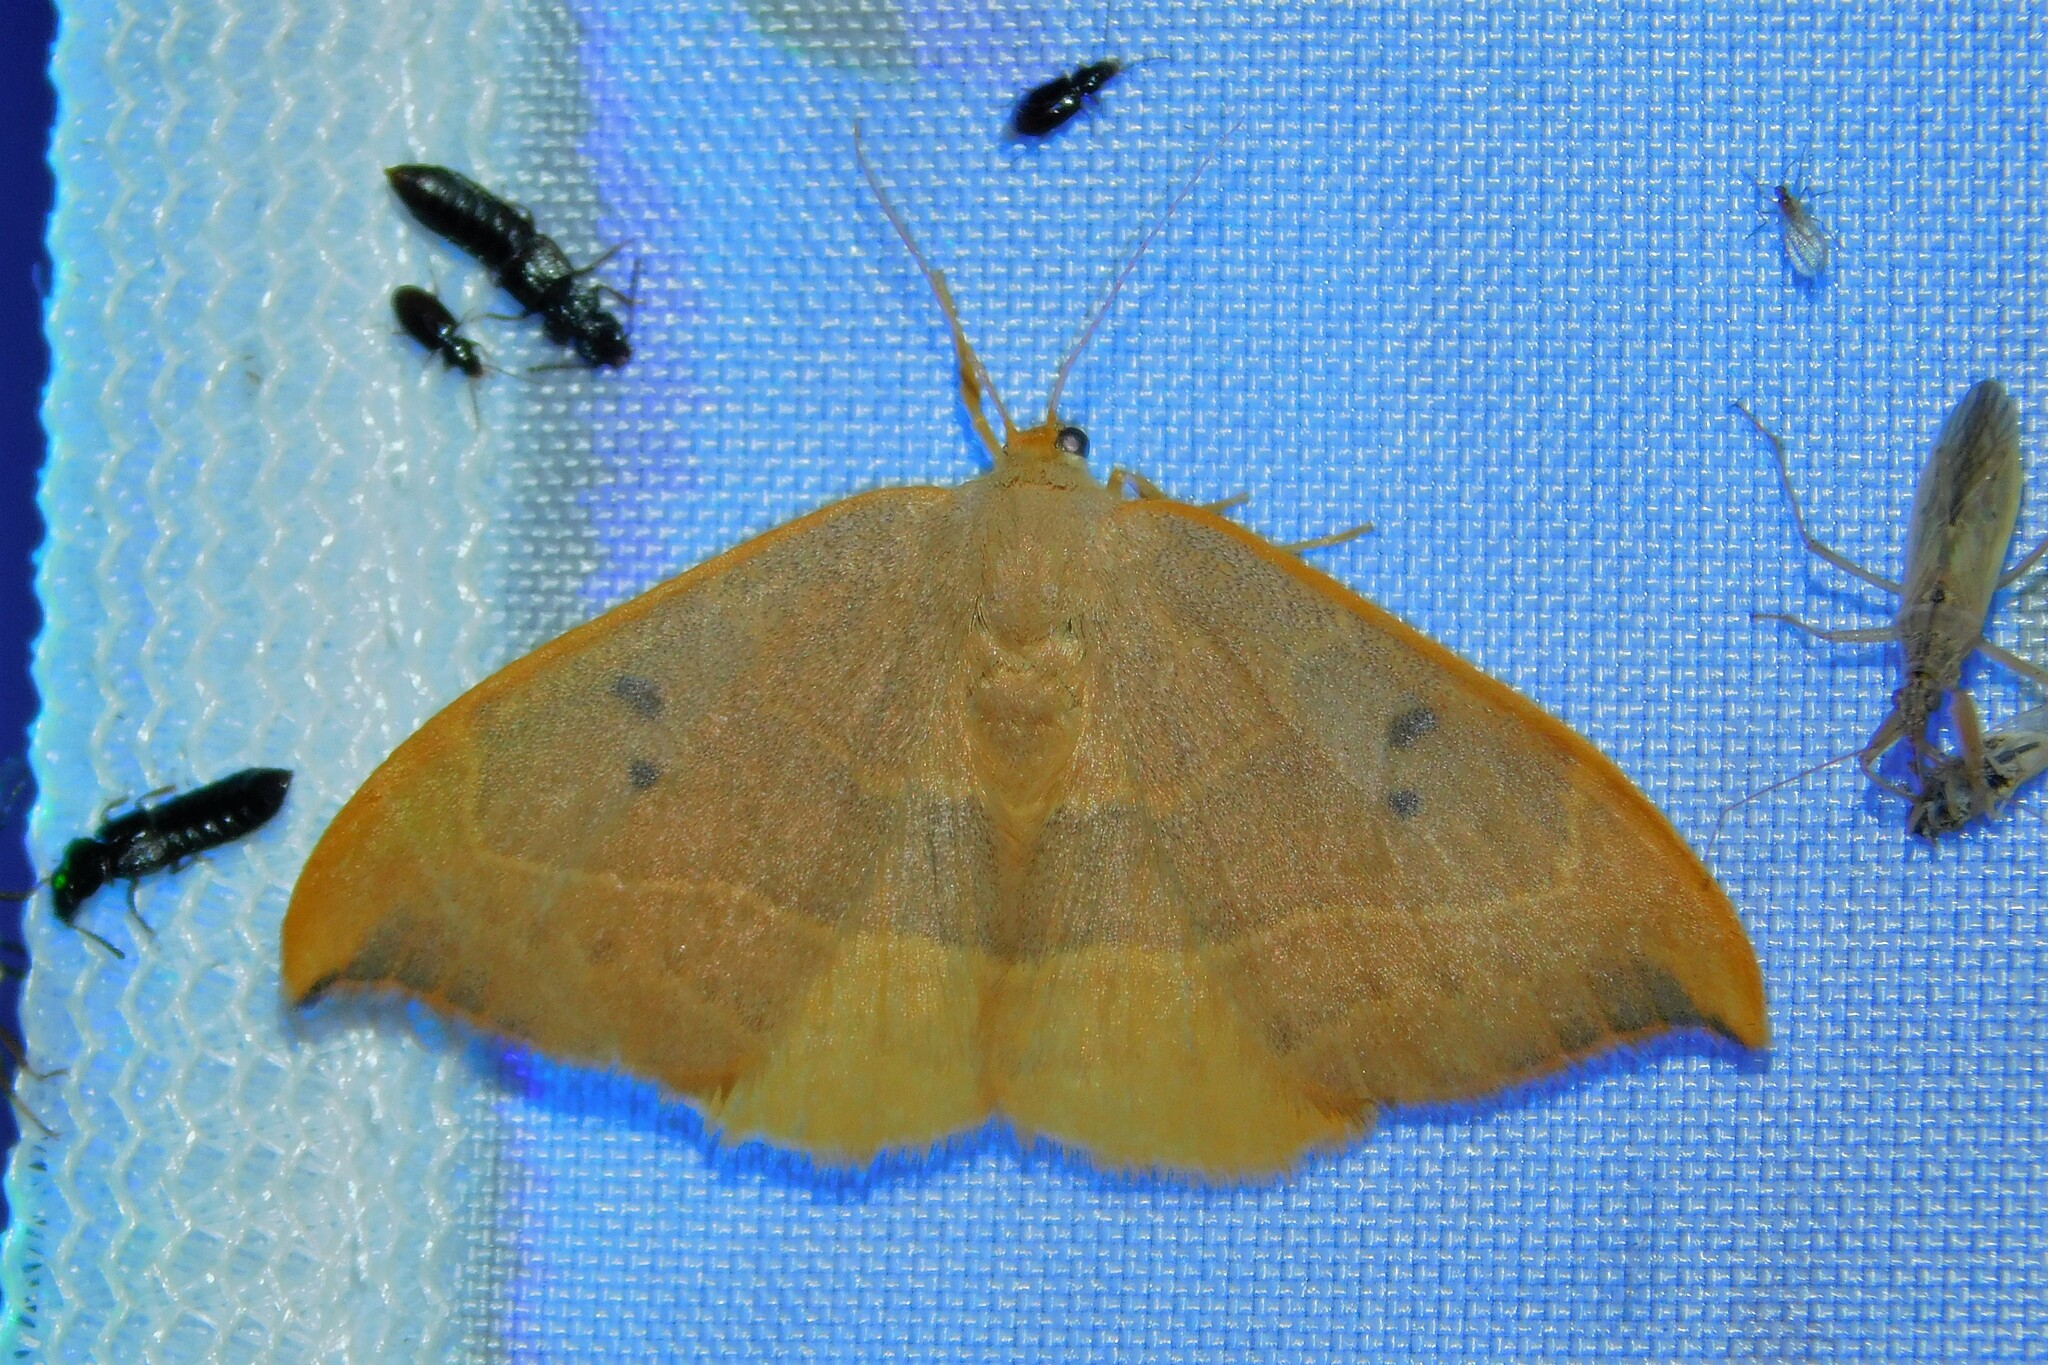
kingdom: Animalia
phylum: Arthropoda
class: Insecta
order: Lepidoptera
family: Drepanidae
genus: Watsonalla
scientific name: Watsonalla binaria
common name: Oak hook-tip
